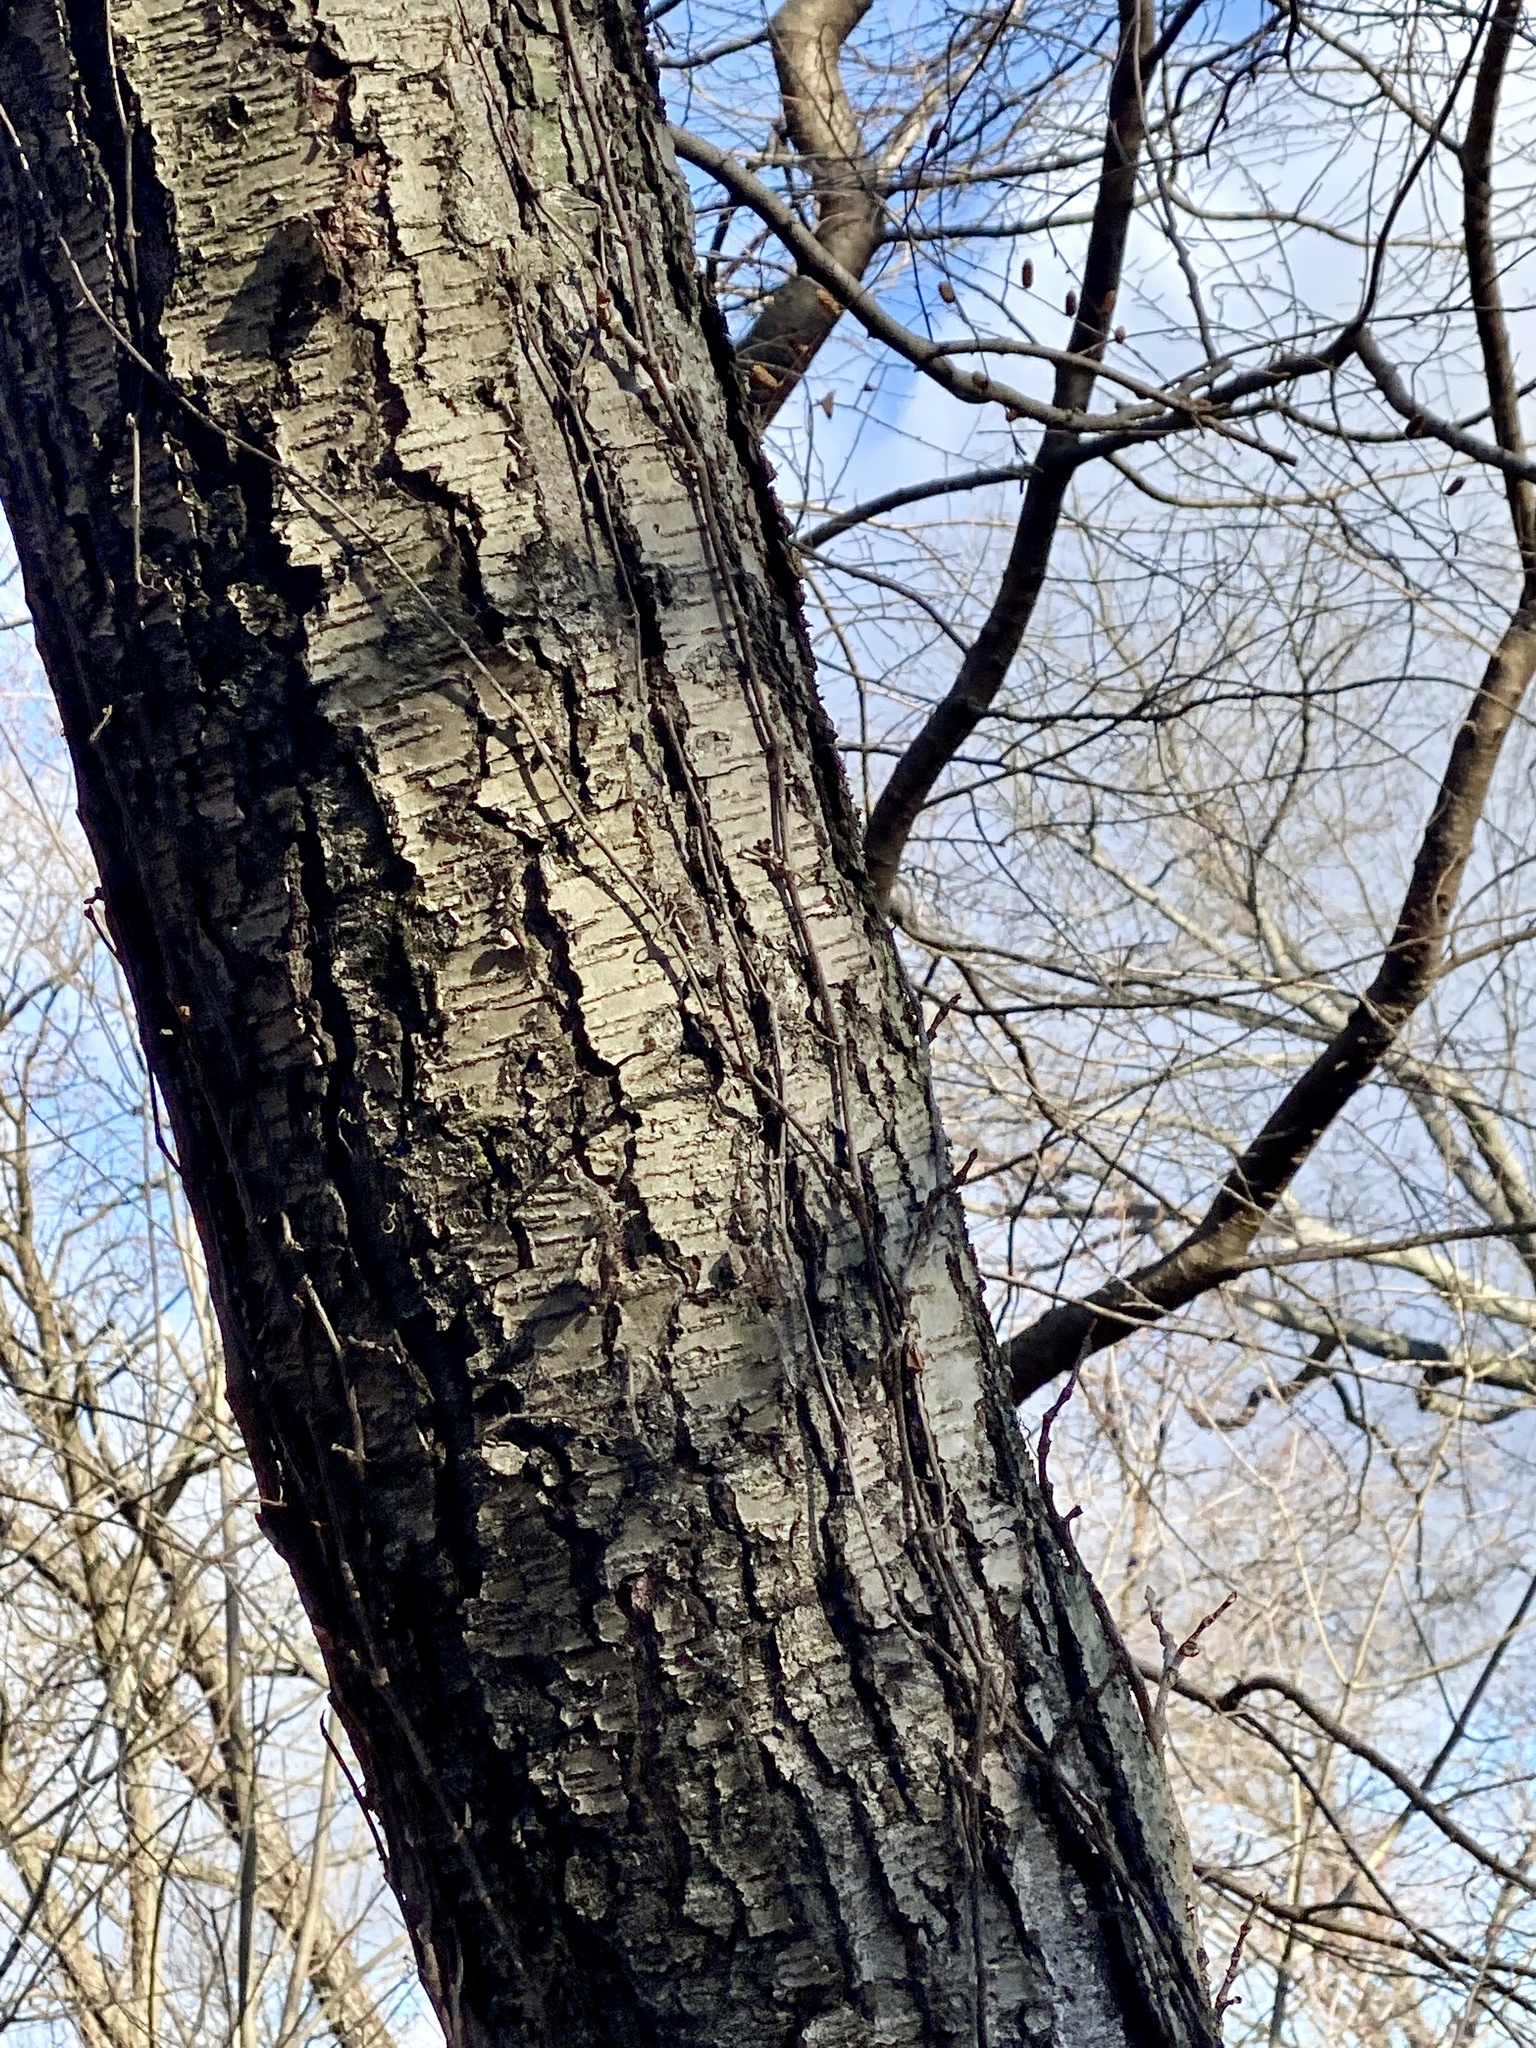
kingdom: Plantae
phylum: Tracheophyta
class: Magnoliopsida
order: Fagales
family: Betulaceae
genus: Betula
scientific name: Betula lenta
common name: Black birch
